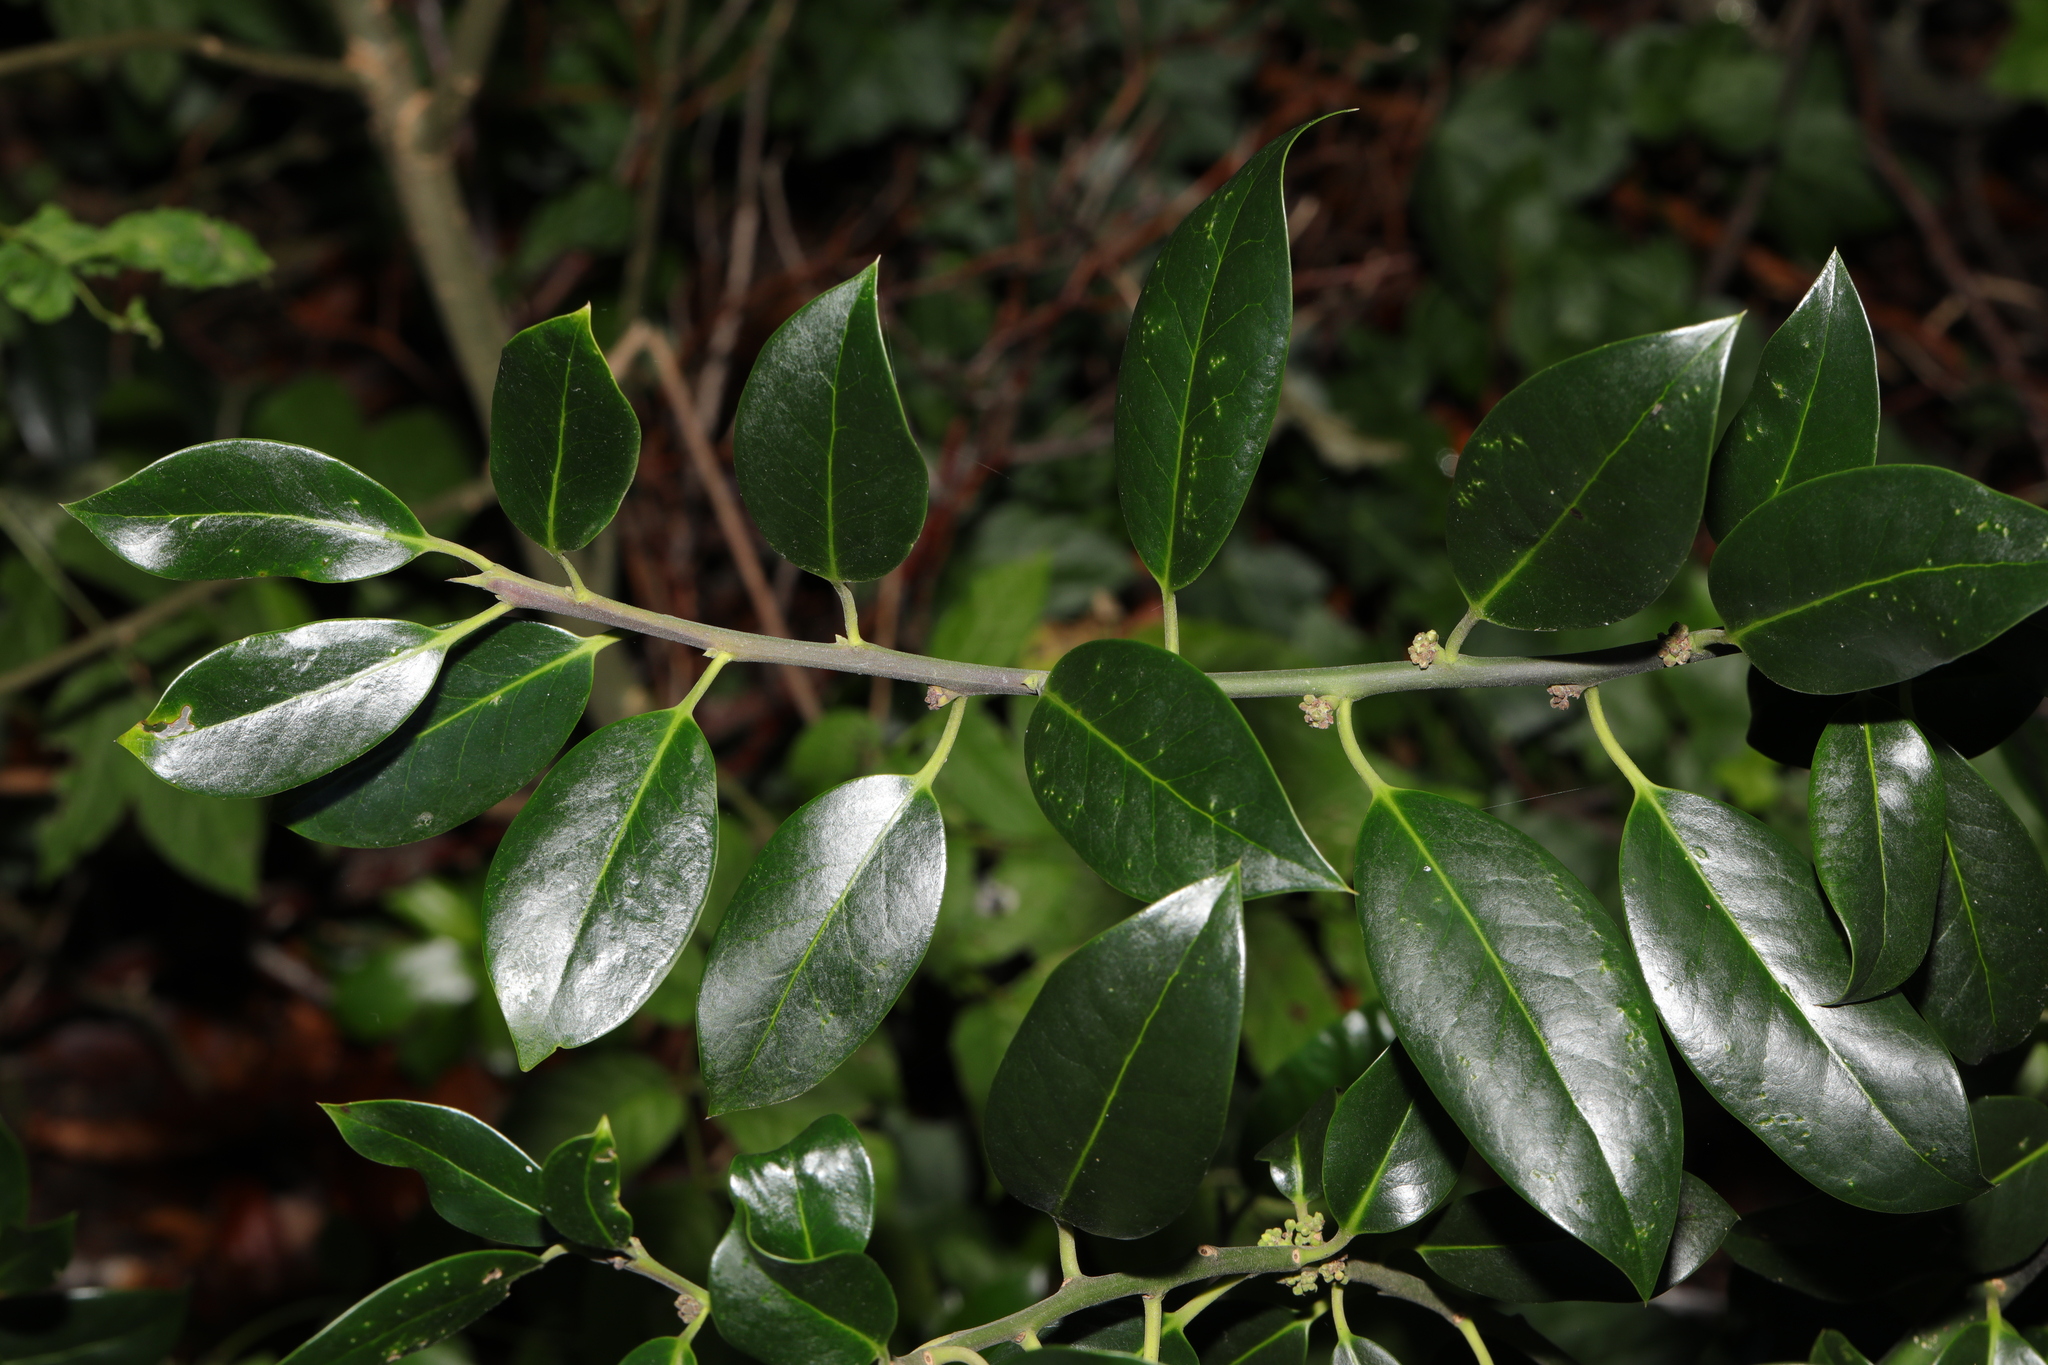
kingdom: Plantae
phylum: Tracheophyta
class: Magnoliopsida
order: Aquifoliales
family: Aquifoliaceae
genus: Ilex
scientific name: Ilex altaclerensis
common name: Highclere holly
